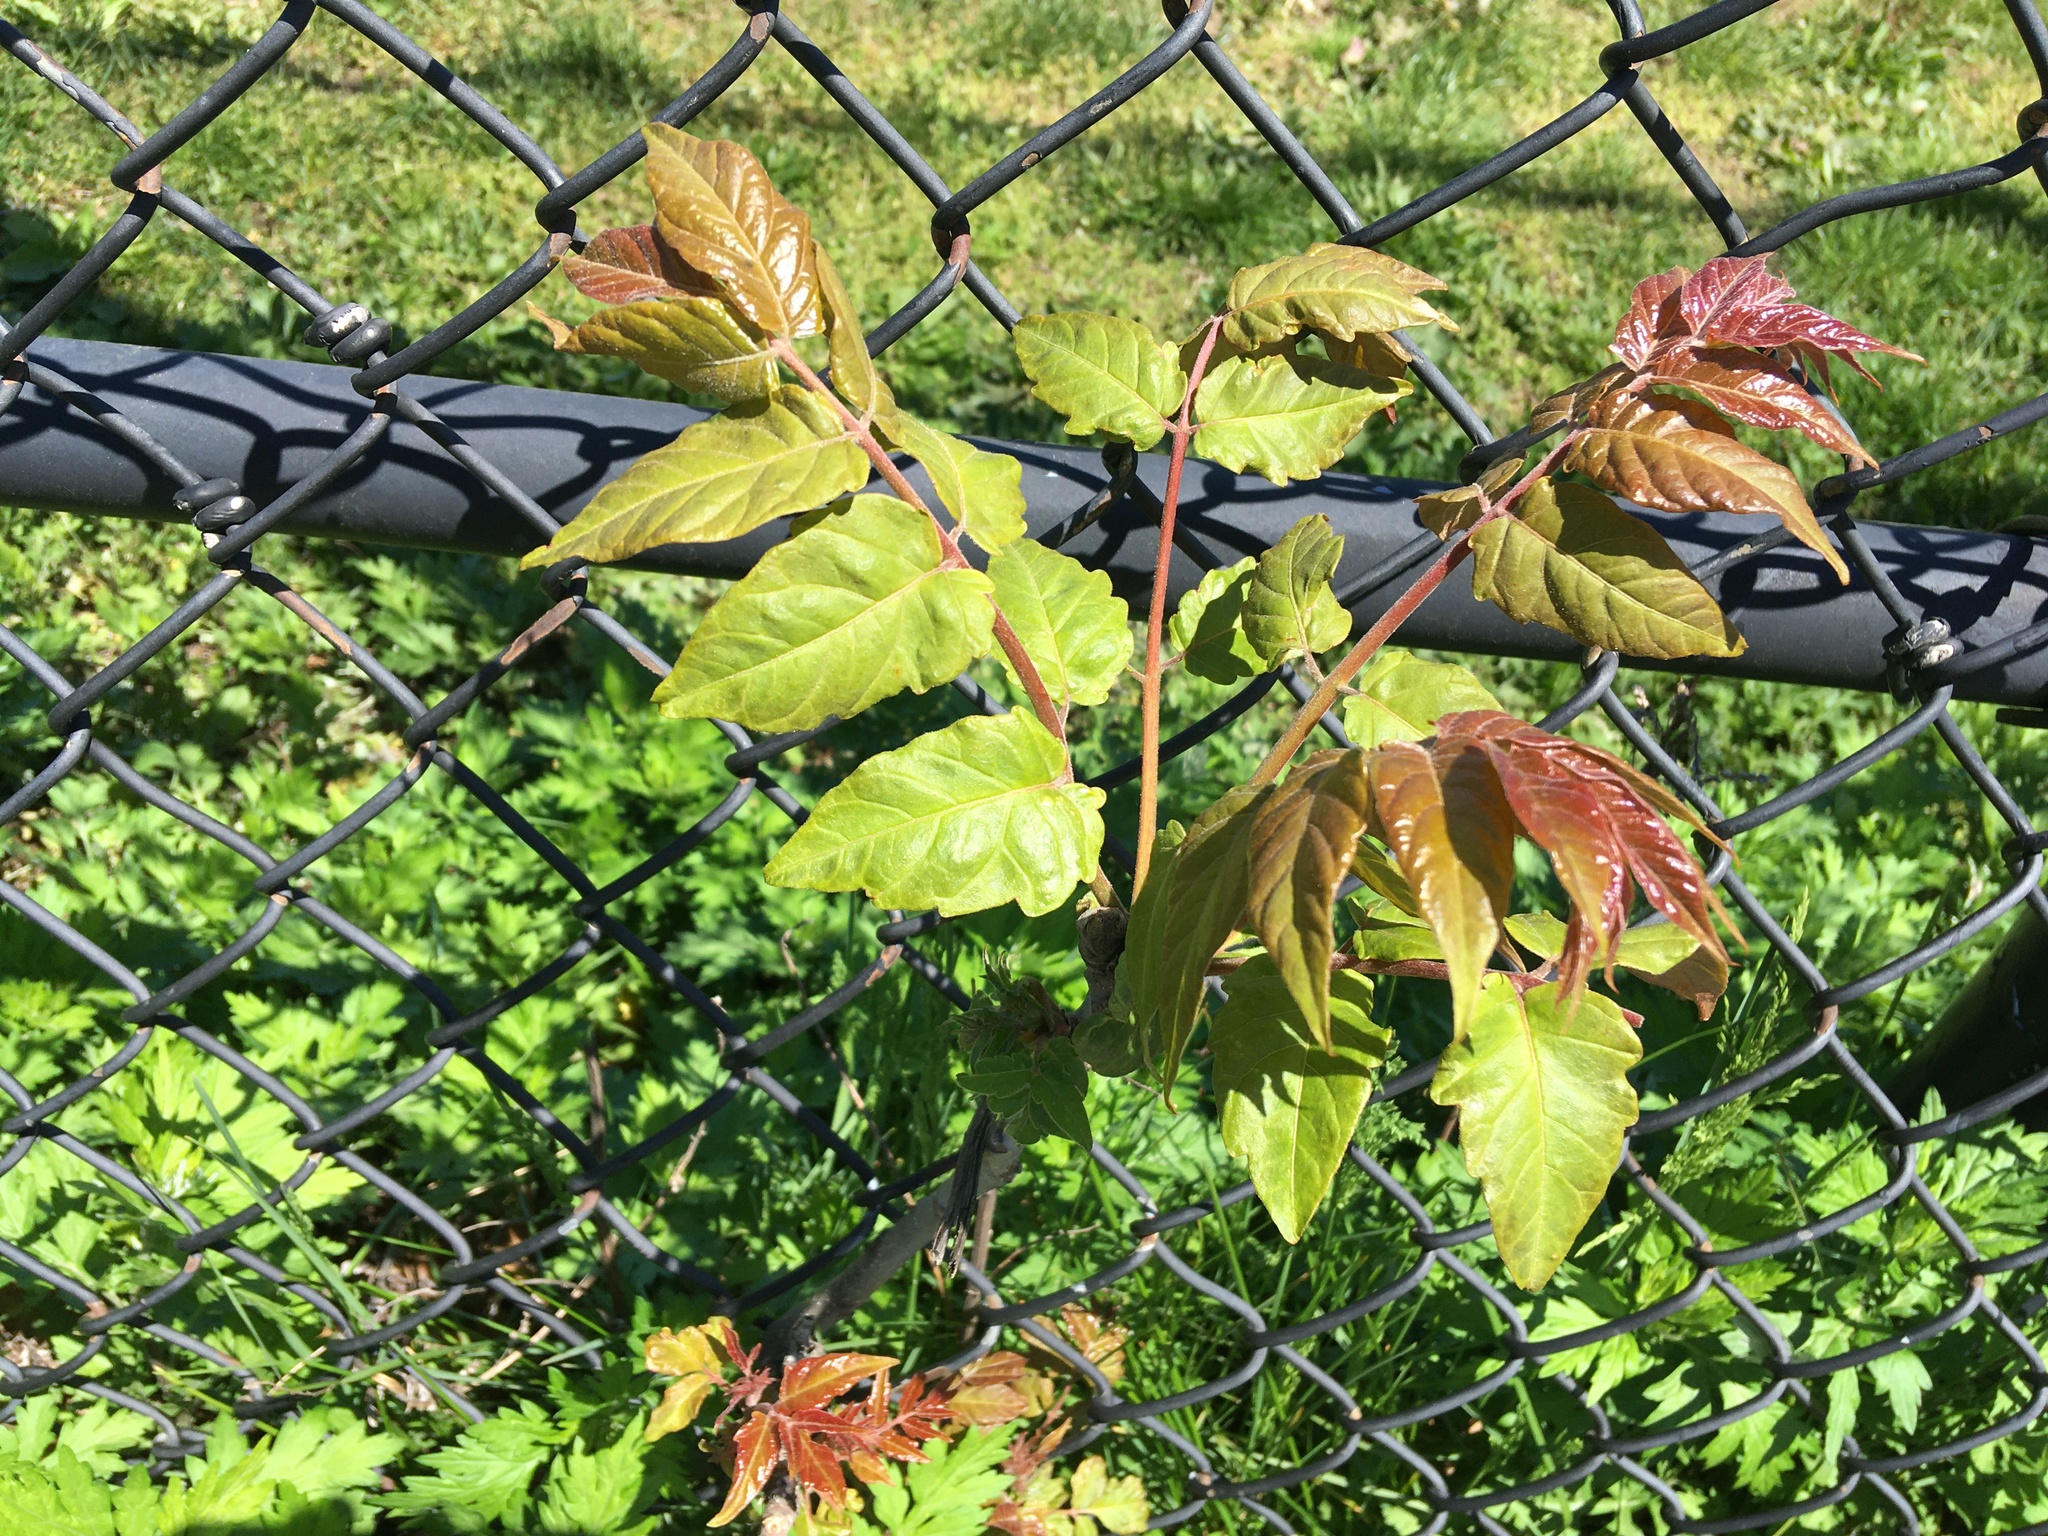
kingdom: Plantae
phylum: Tracheophyta
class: Magnoliopsida
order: Sapindales
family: Simaroubaceae
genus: Ailanthus
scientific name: Ailanthus altissima
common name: Tree-of-heaven
